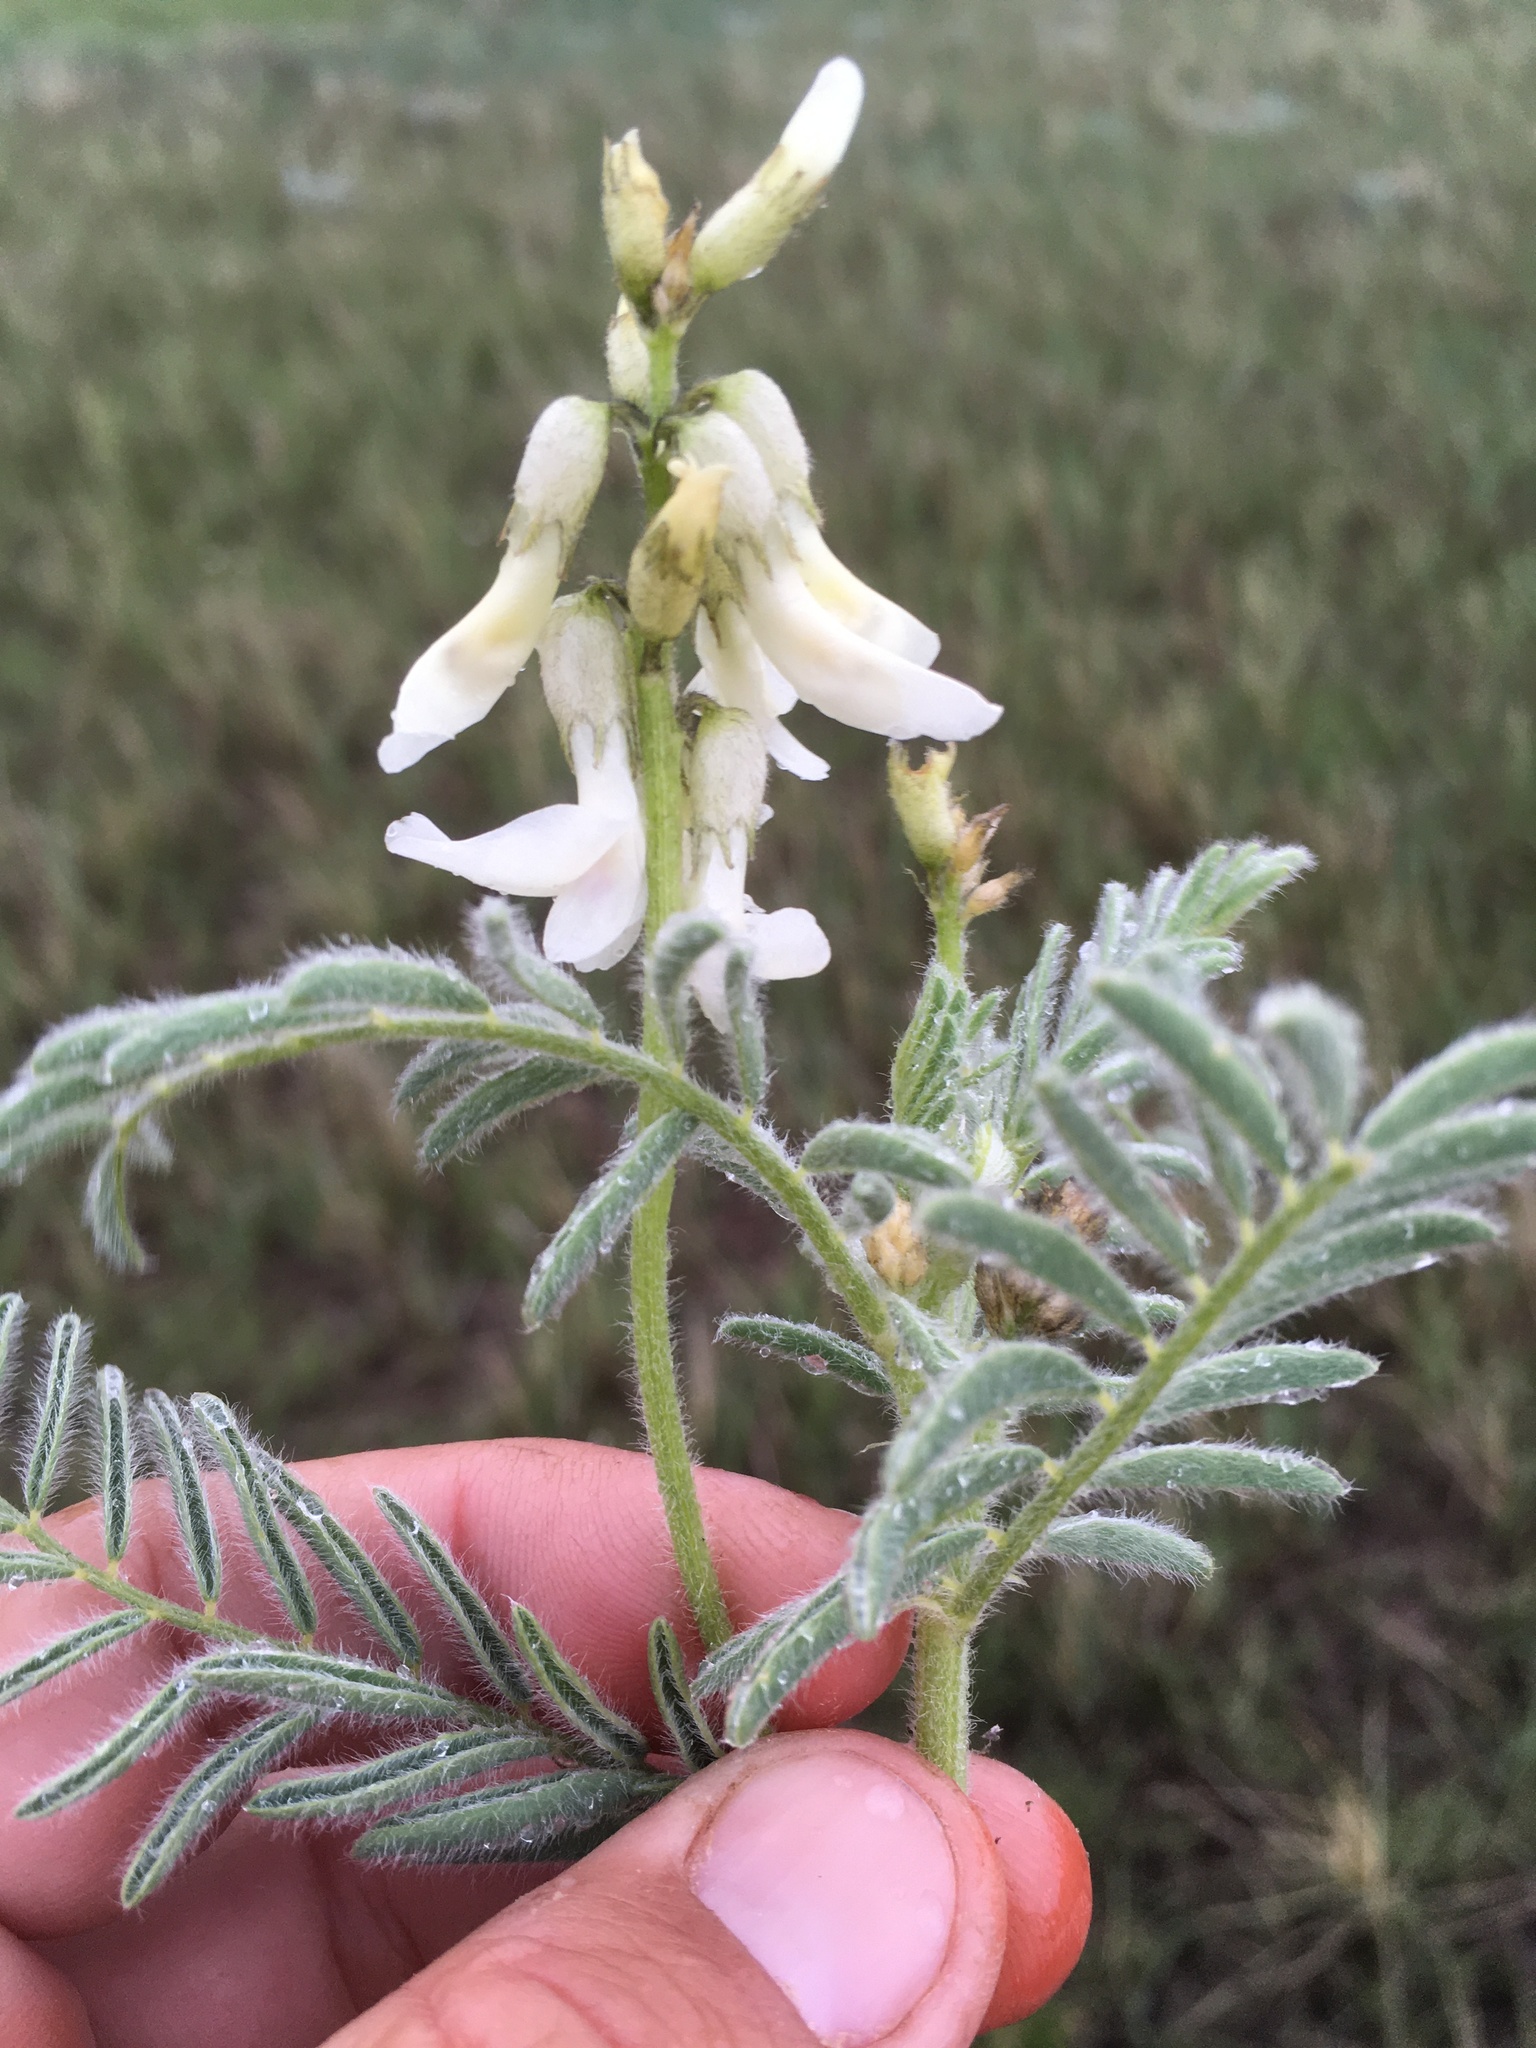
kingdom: Plantae
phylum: Tracheophyta
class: Magnoliopsida
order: Fabales
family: Fabaceae
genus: Astragalus
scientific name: Astragalus drummondii
